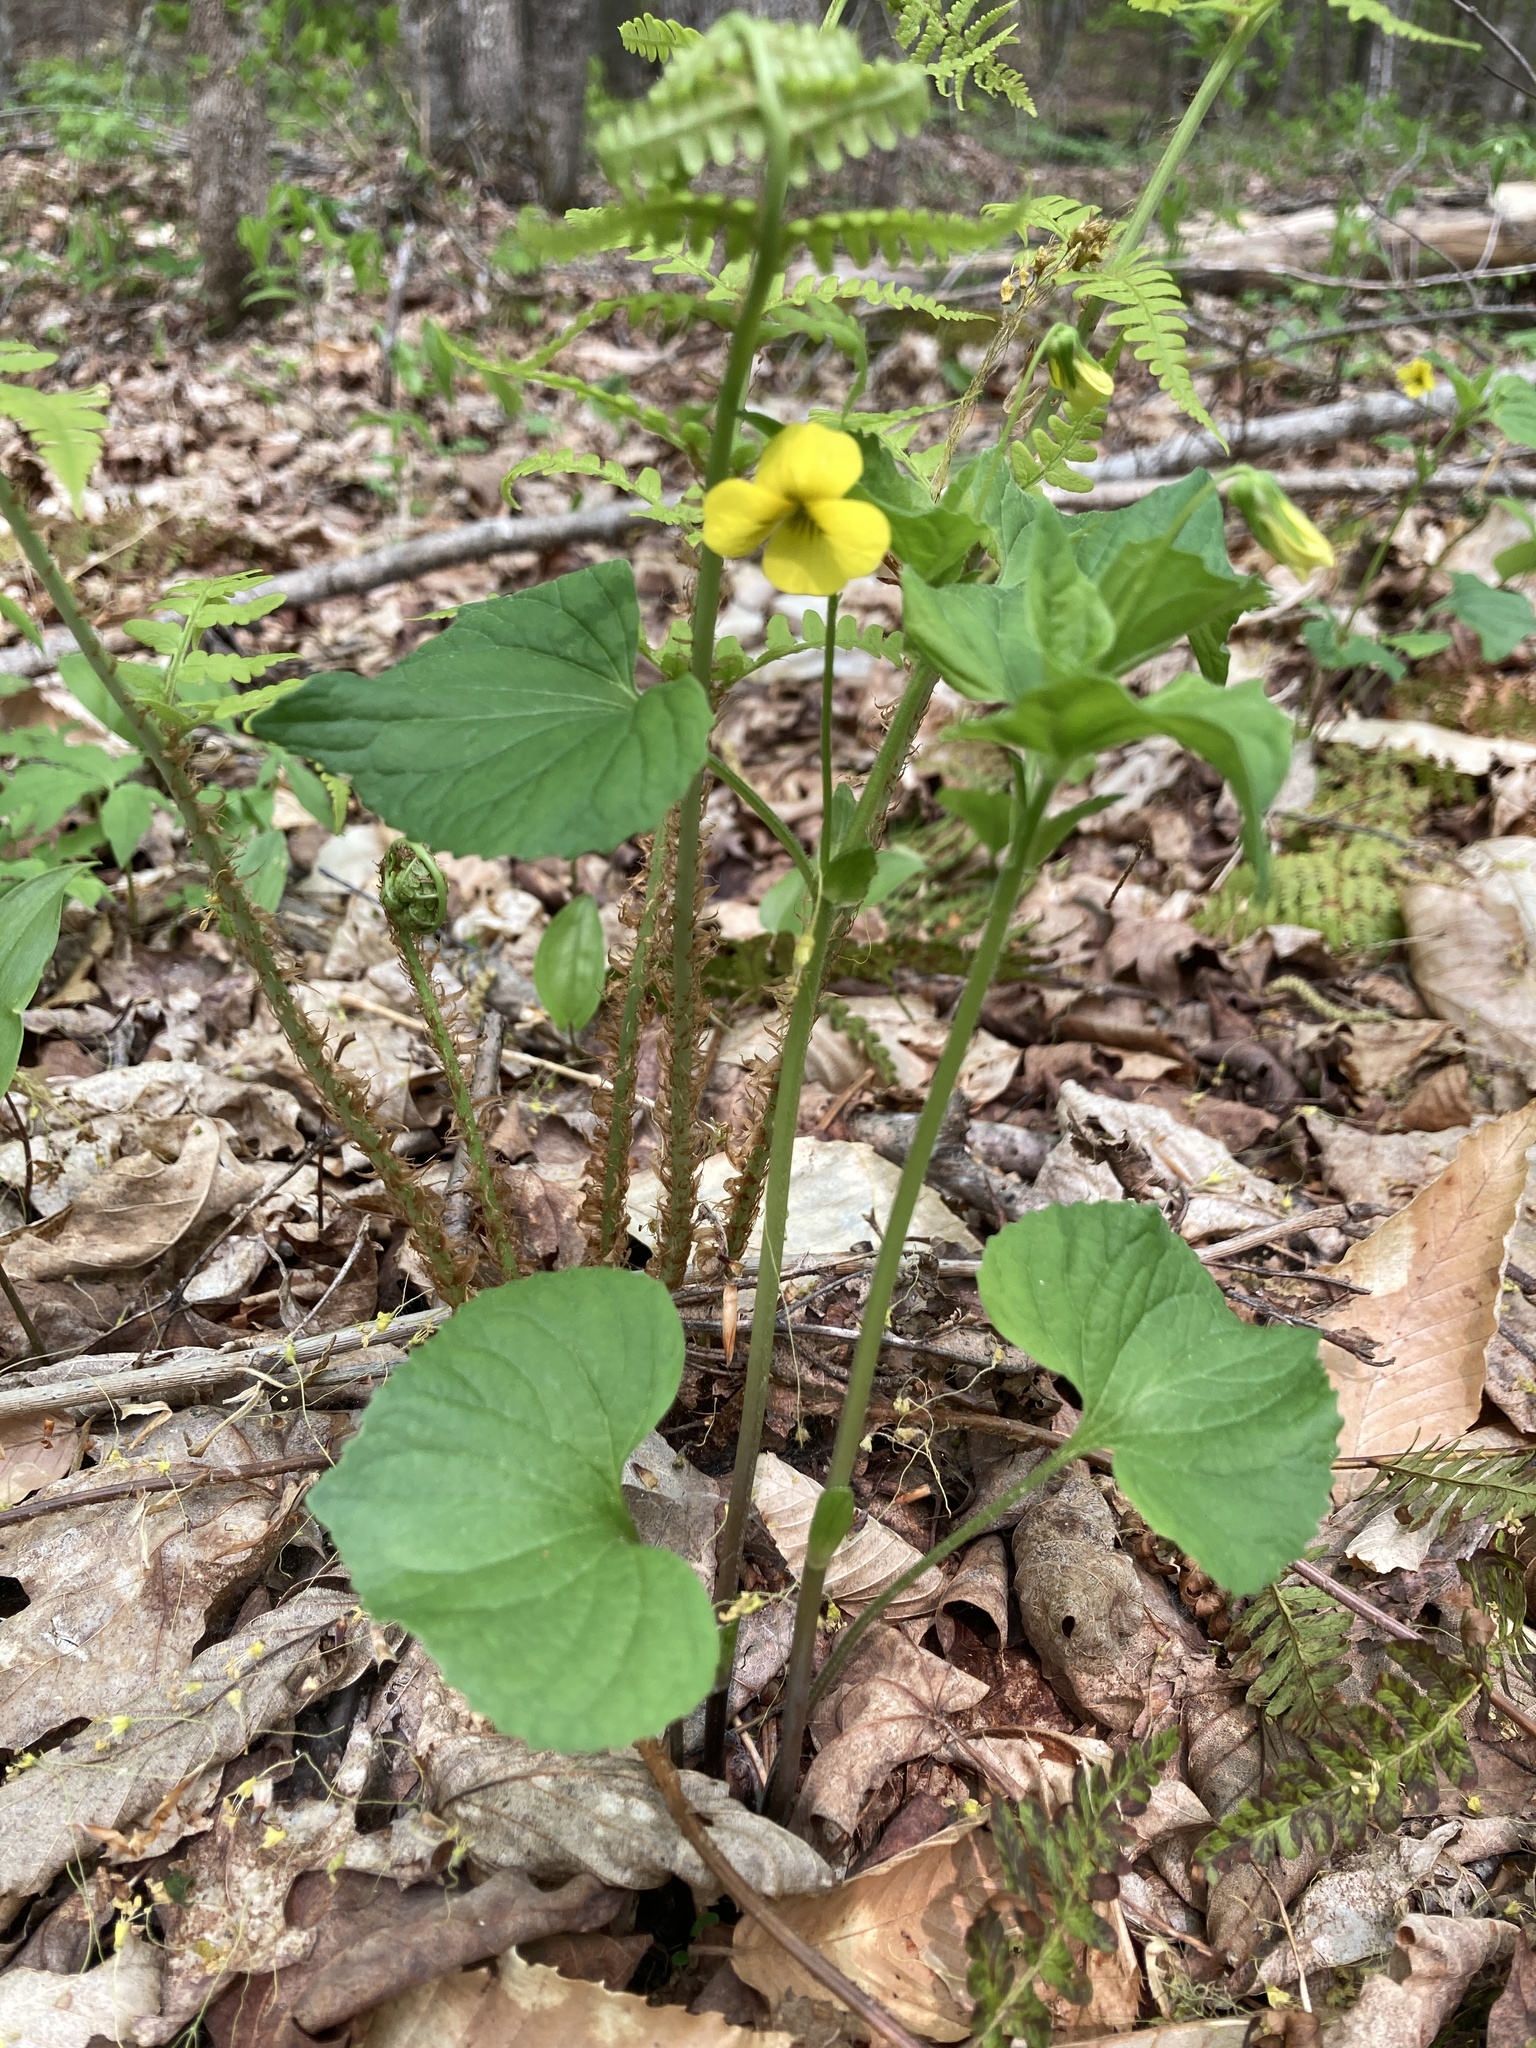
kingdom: Plantae
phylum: Tracheophyta
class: Magnoliopsida
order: Malpighiales
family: Violaceae
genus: Viola
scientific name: Viola eriocarpa
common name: Smooth yellow violet
